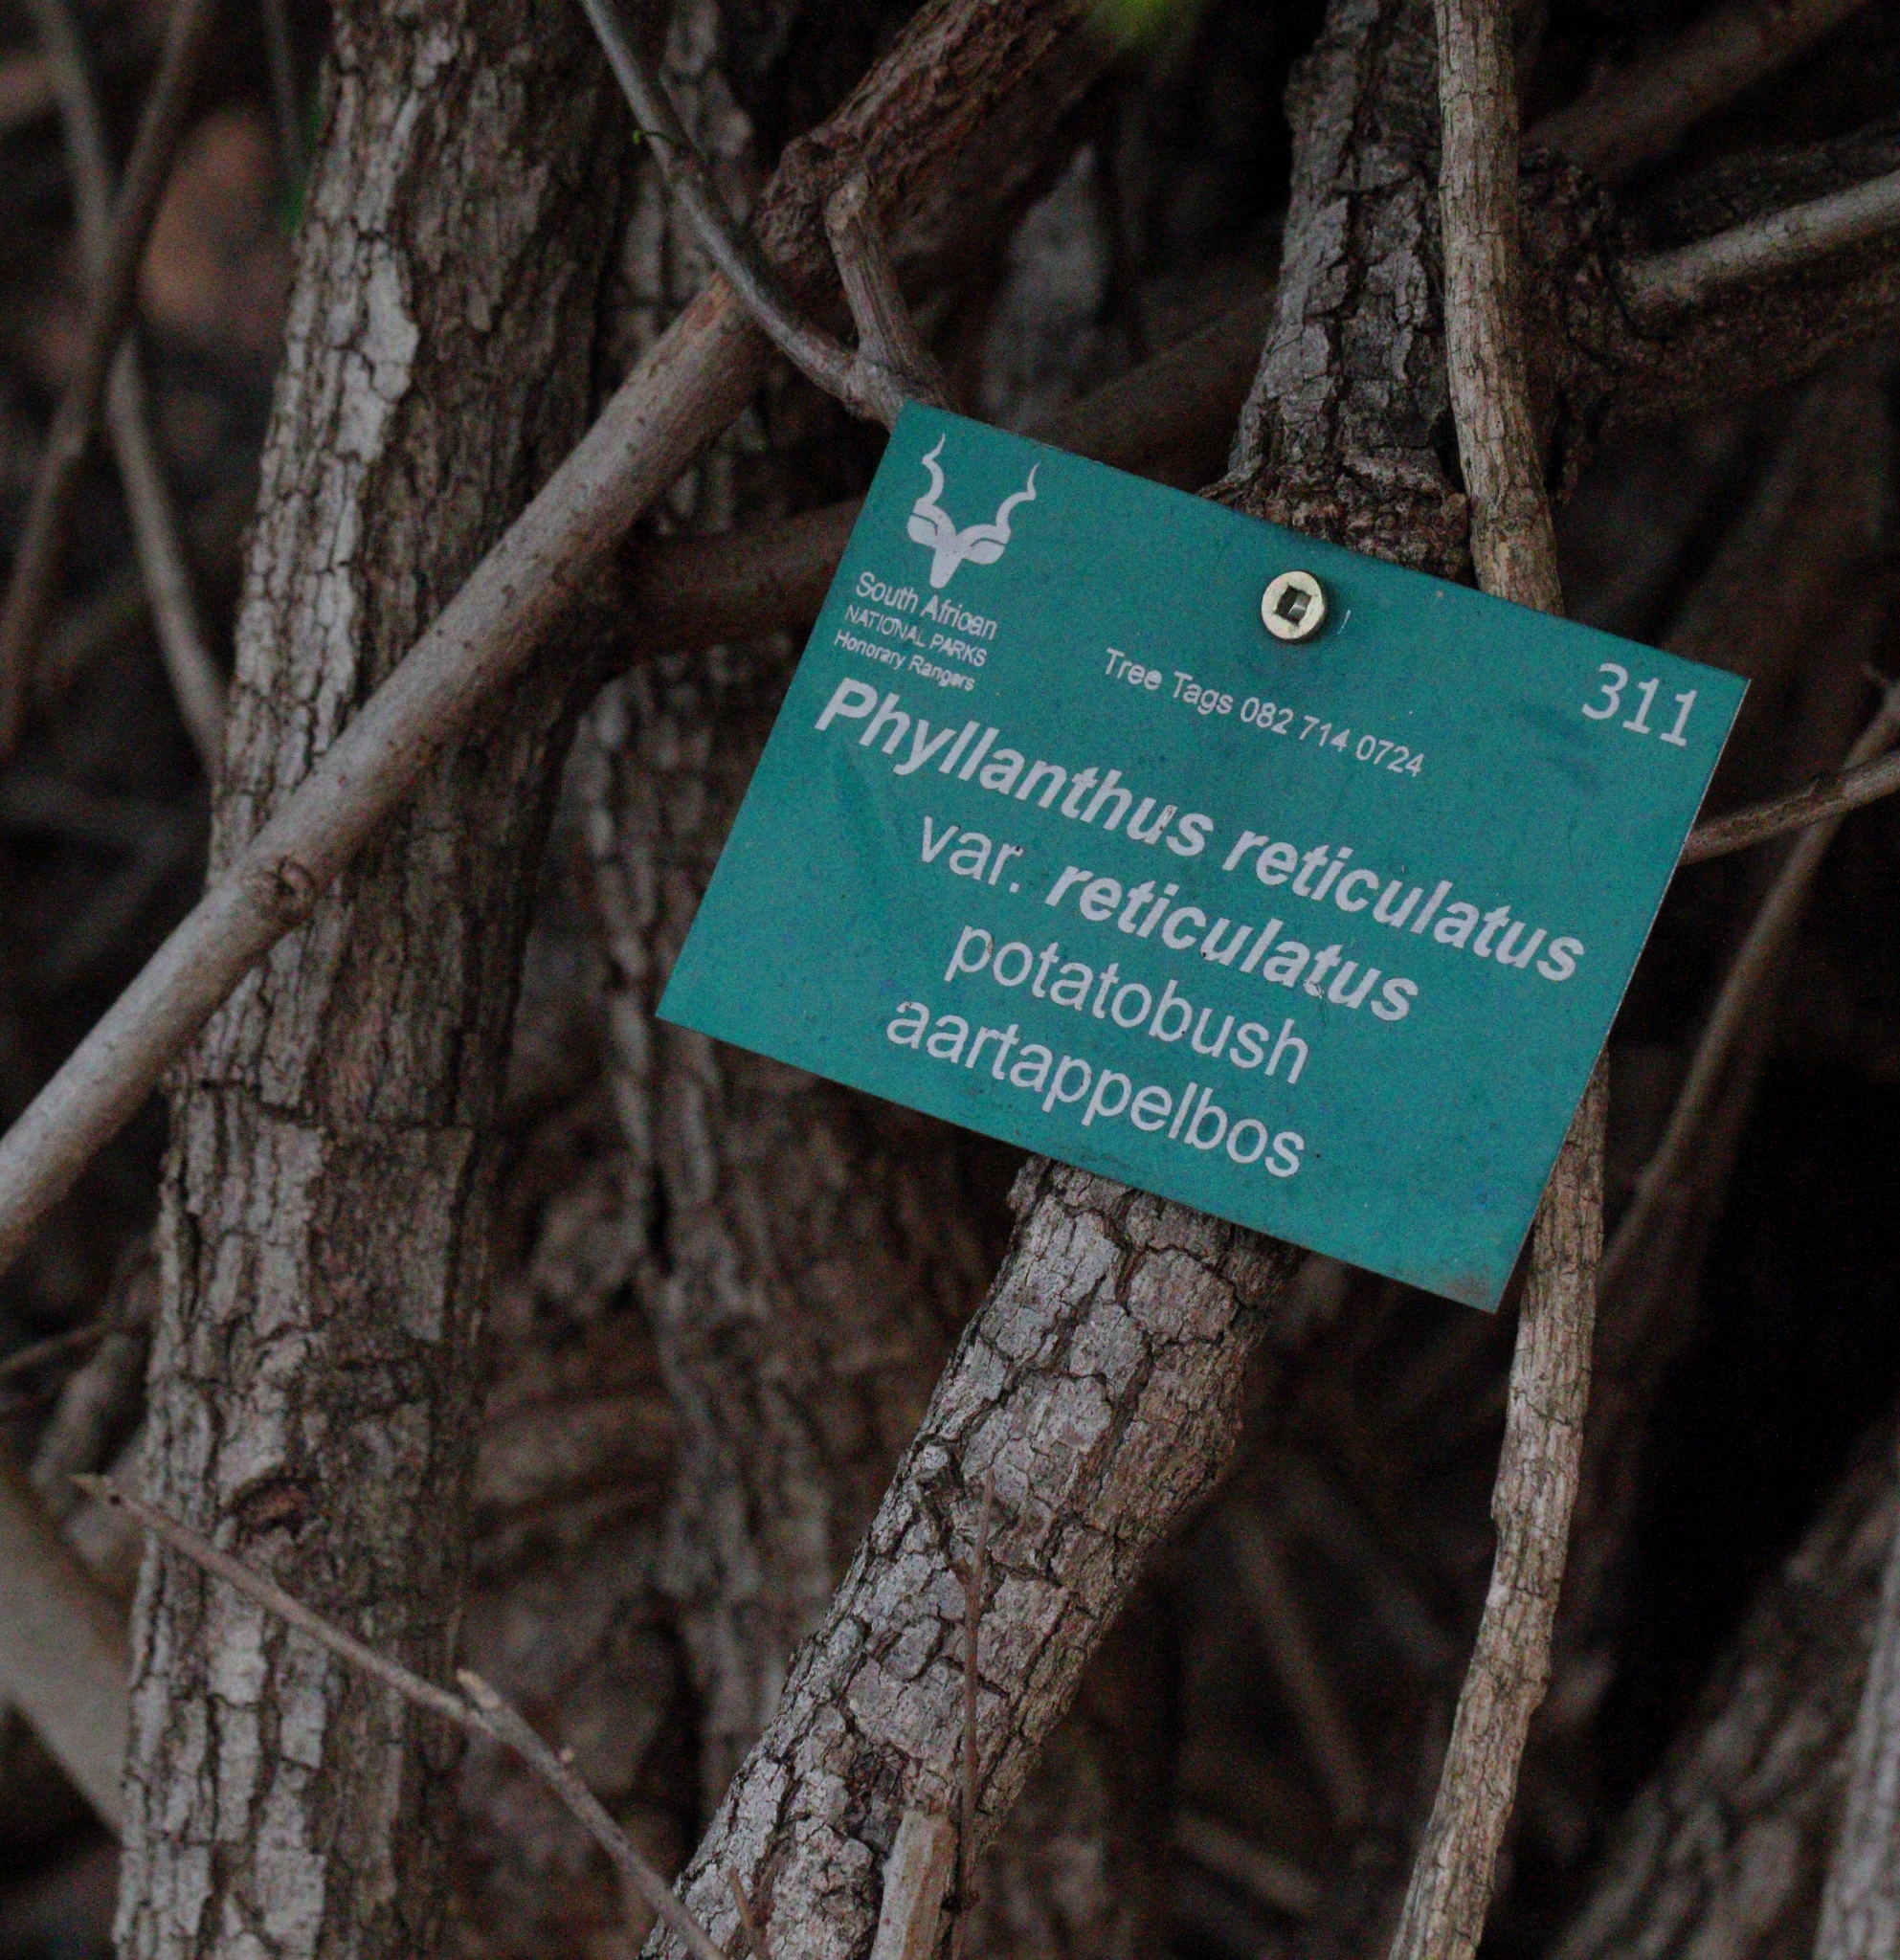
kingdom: Plantae
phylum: Tracheophyta
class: Magnoliopsida
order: Malpighiales
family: Phyllanthaceae
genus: Phyllanthus
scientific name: Phyllanthus reticulatus
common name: Potato bush
